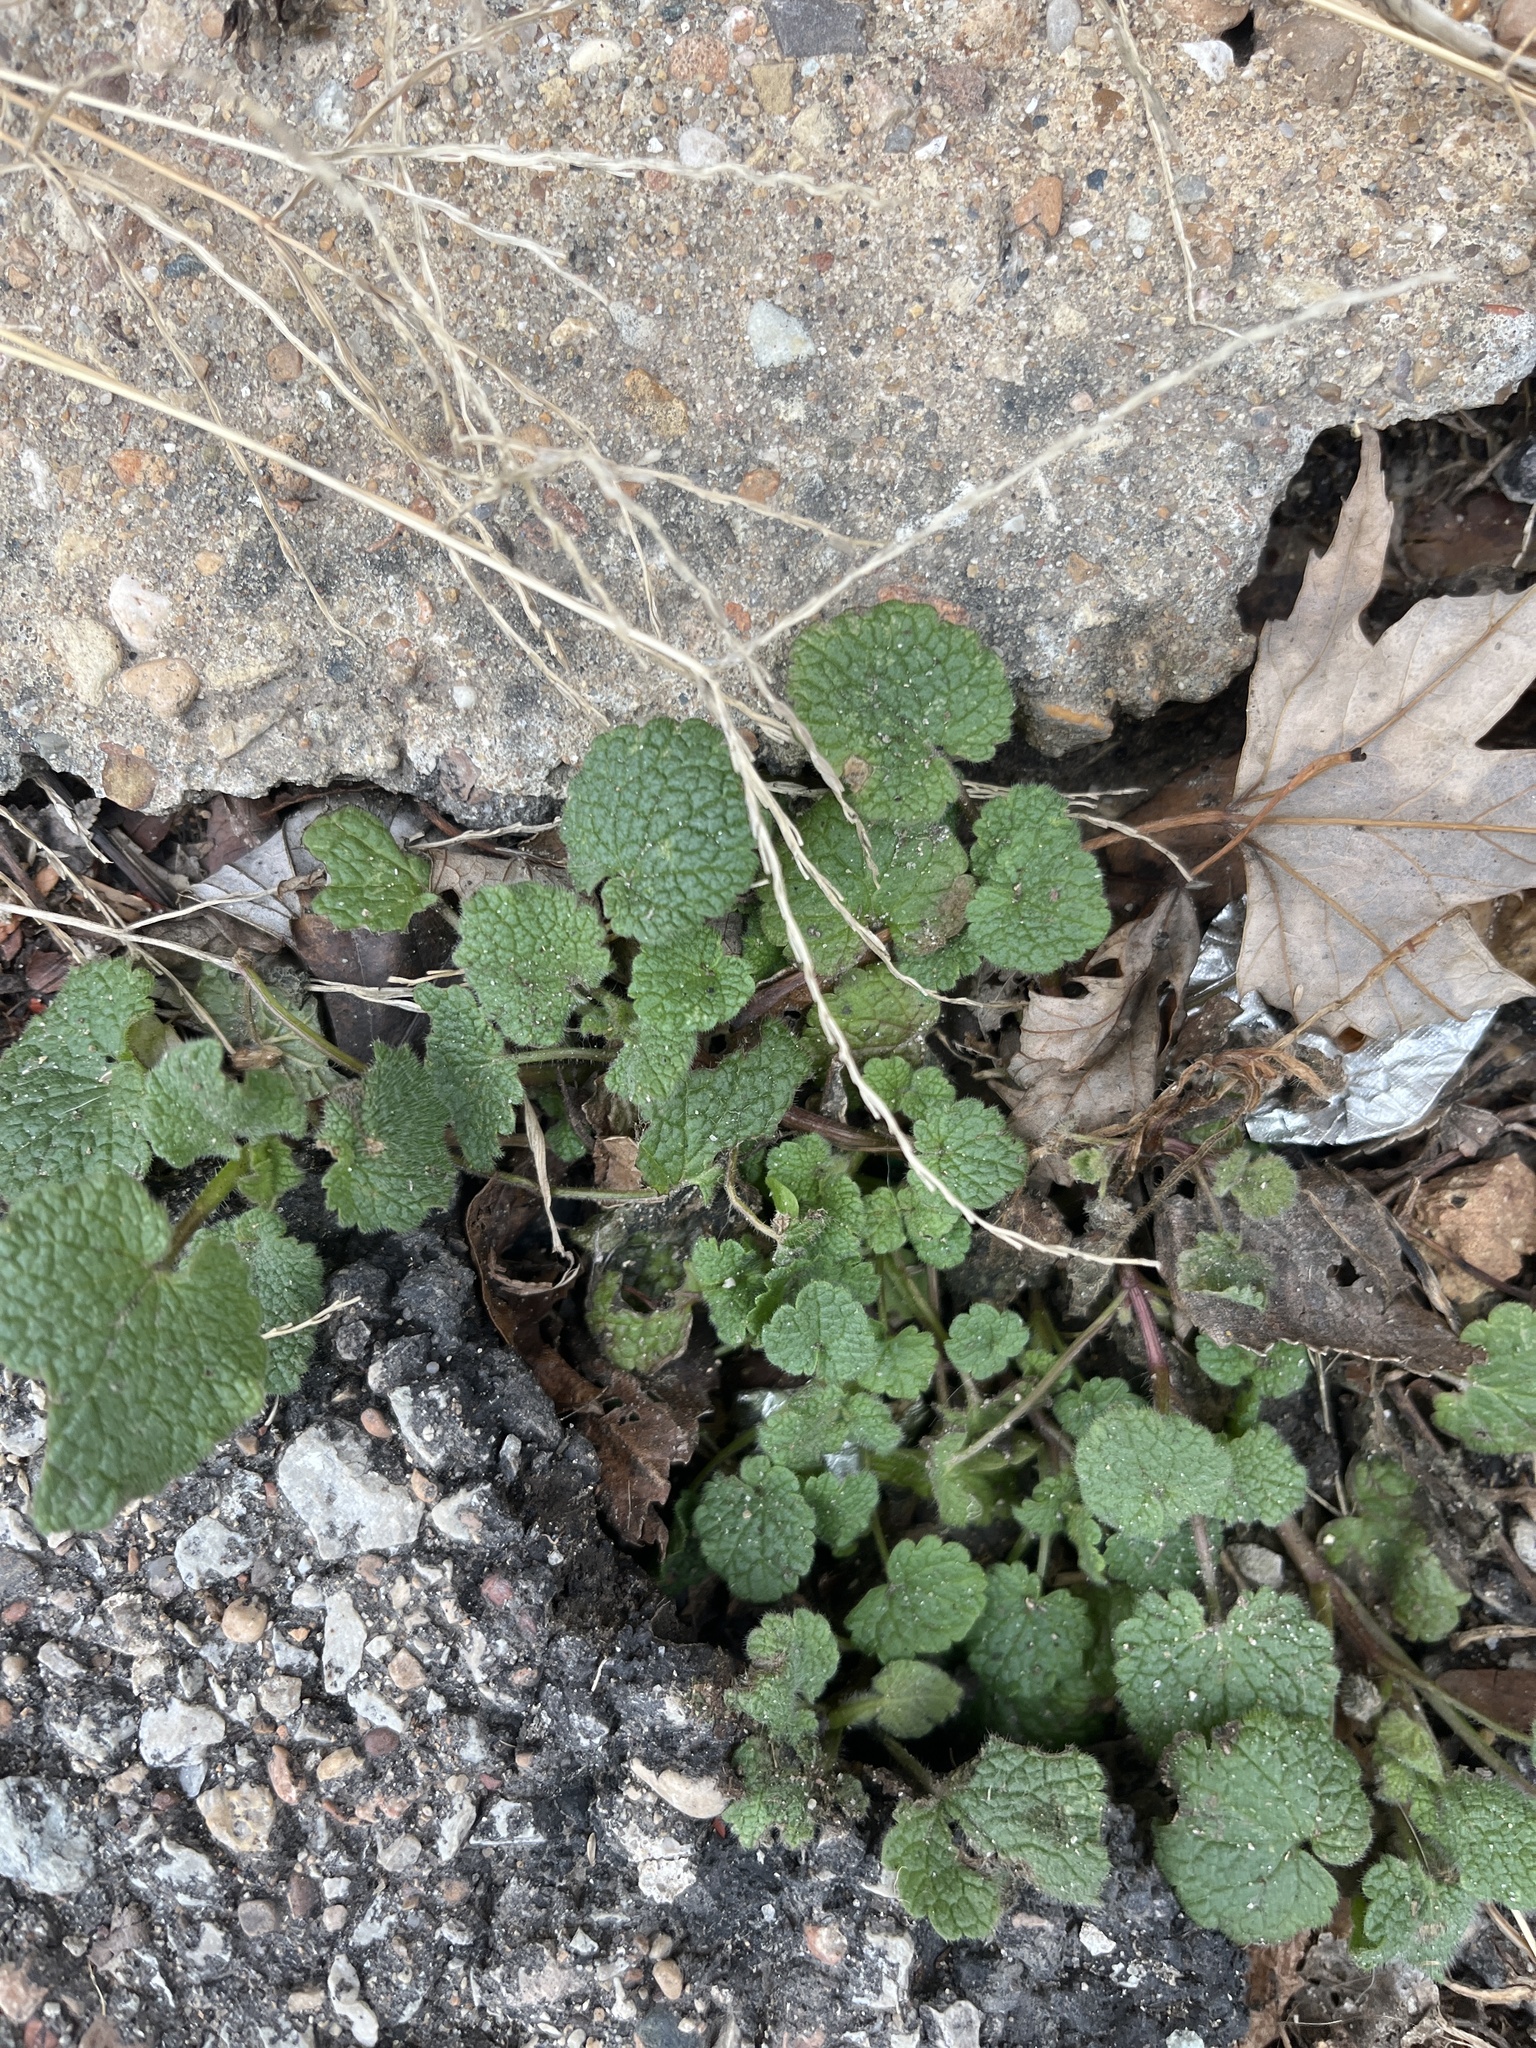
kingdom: Plantae
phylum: Tracheophyta
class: Magnoliopsida
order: Lamiales
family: Lamiaceae
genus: Lamium
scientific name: Lamium purpureum
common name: Red dead-nettle
